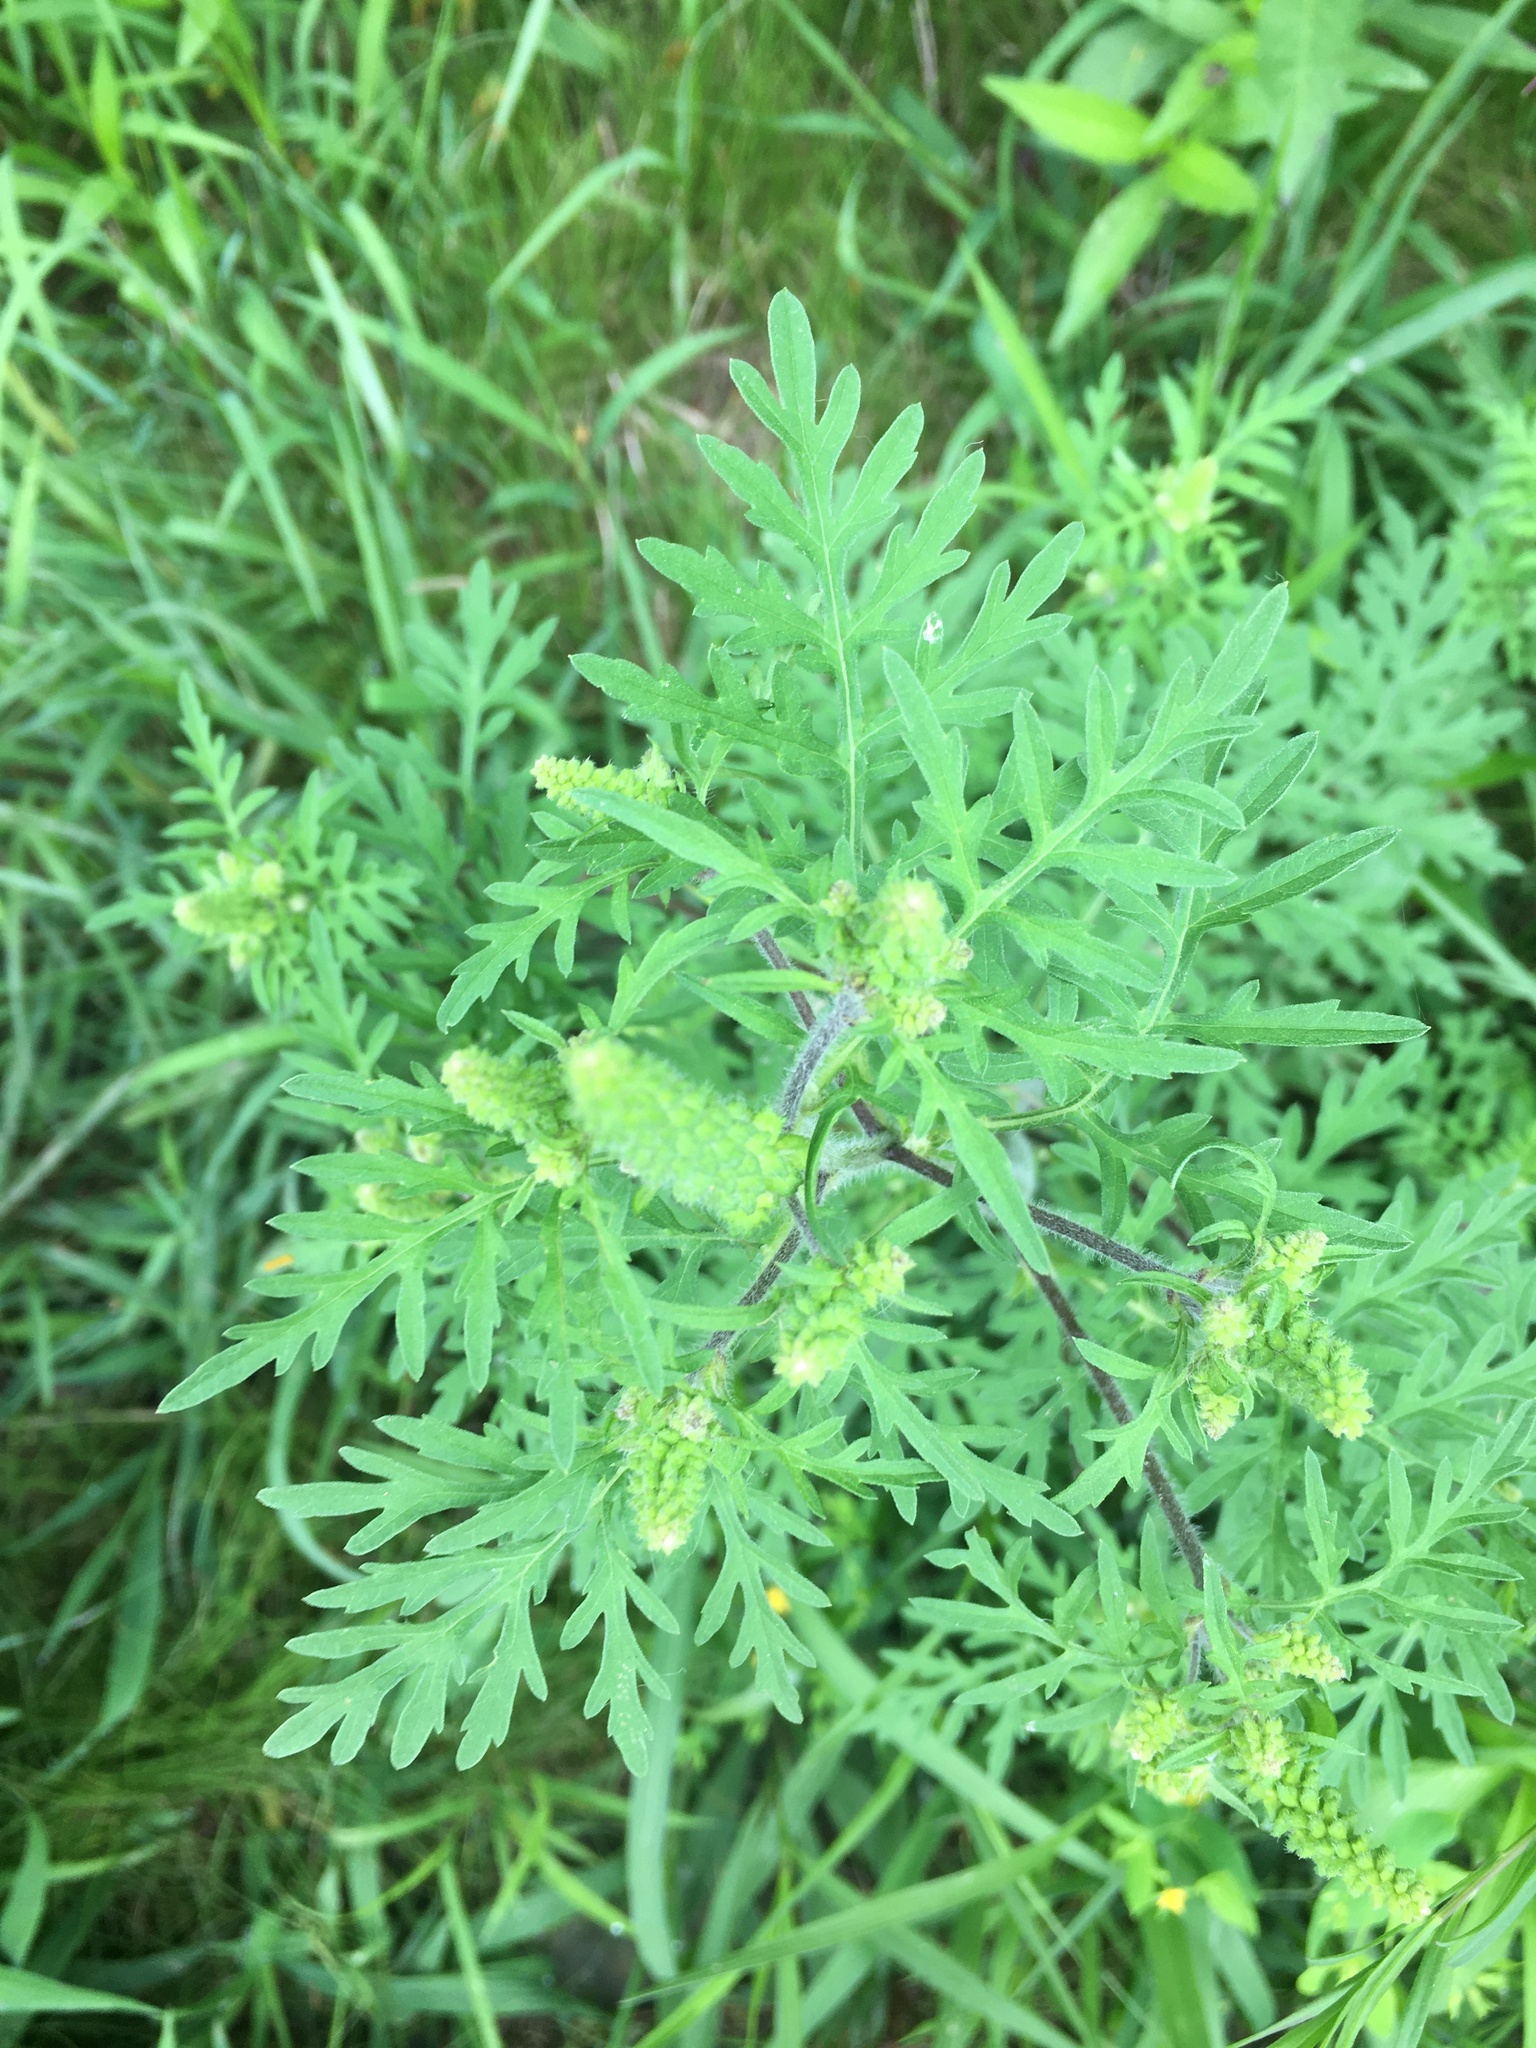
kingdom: Plantae
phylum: Tracheophyta
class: Magnoliopsida
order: Asterales
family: Asteraceae
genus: Ambrosia
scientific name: Ambrosia artemisiifolia
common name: Annual ragweed
